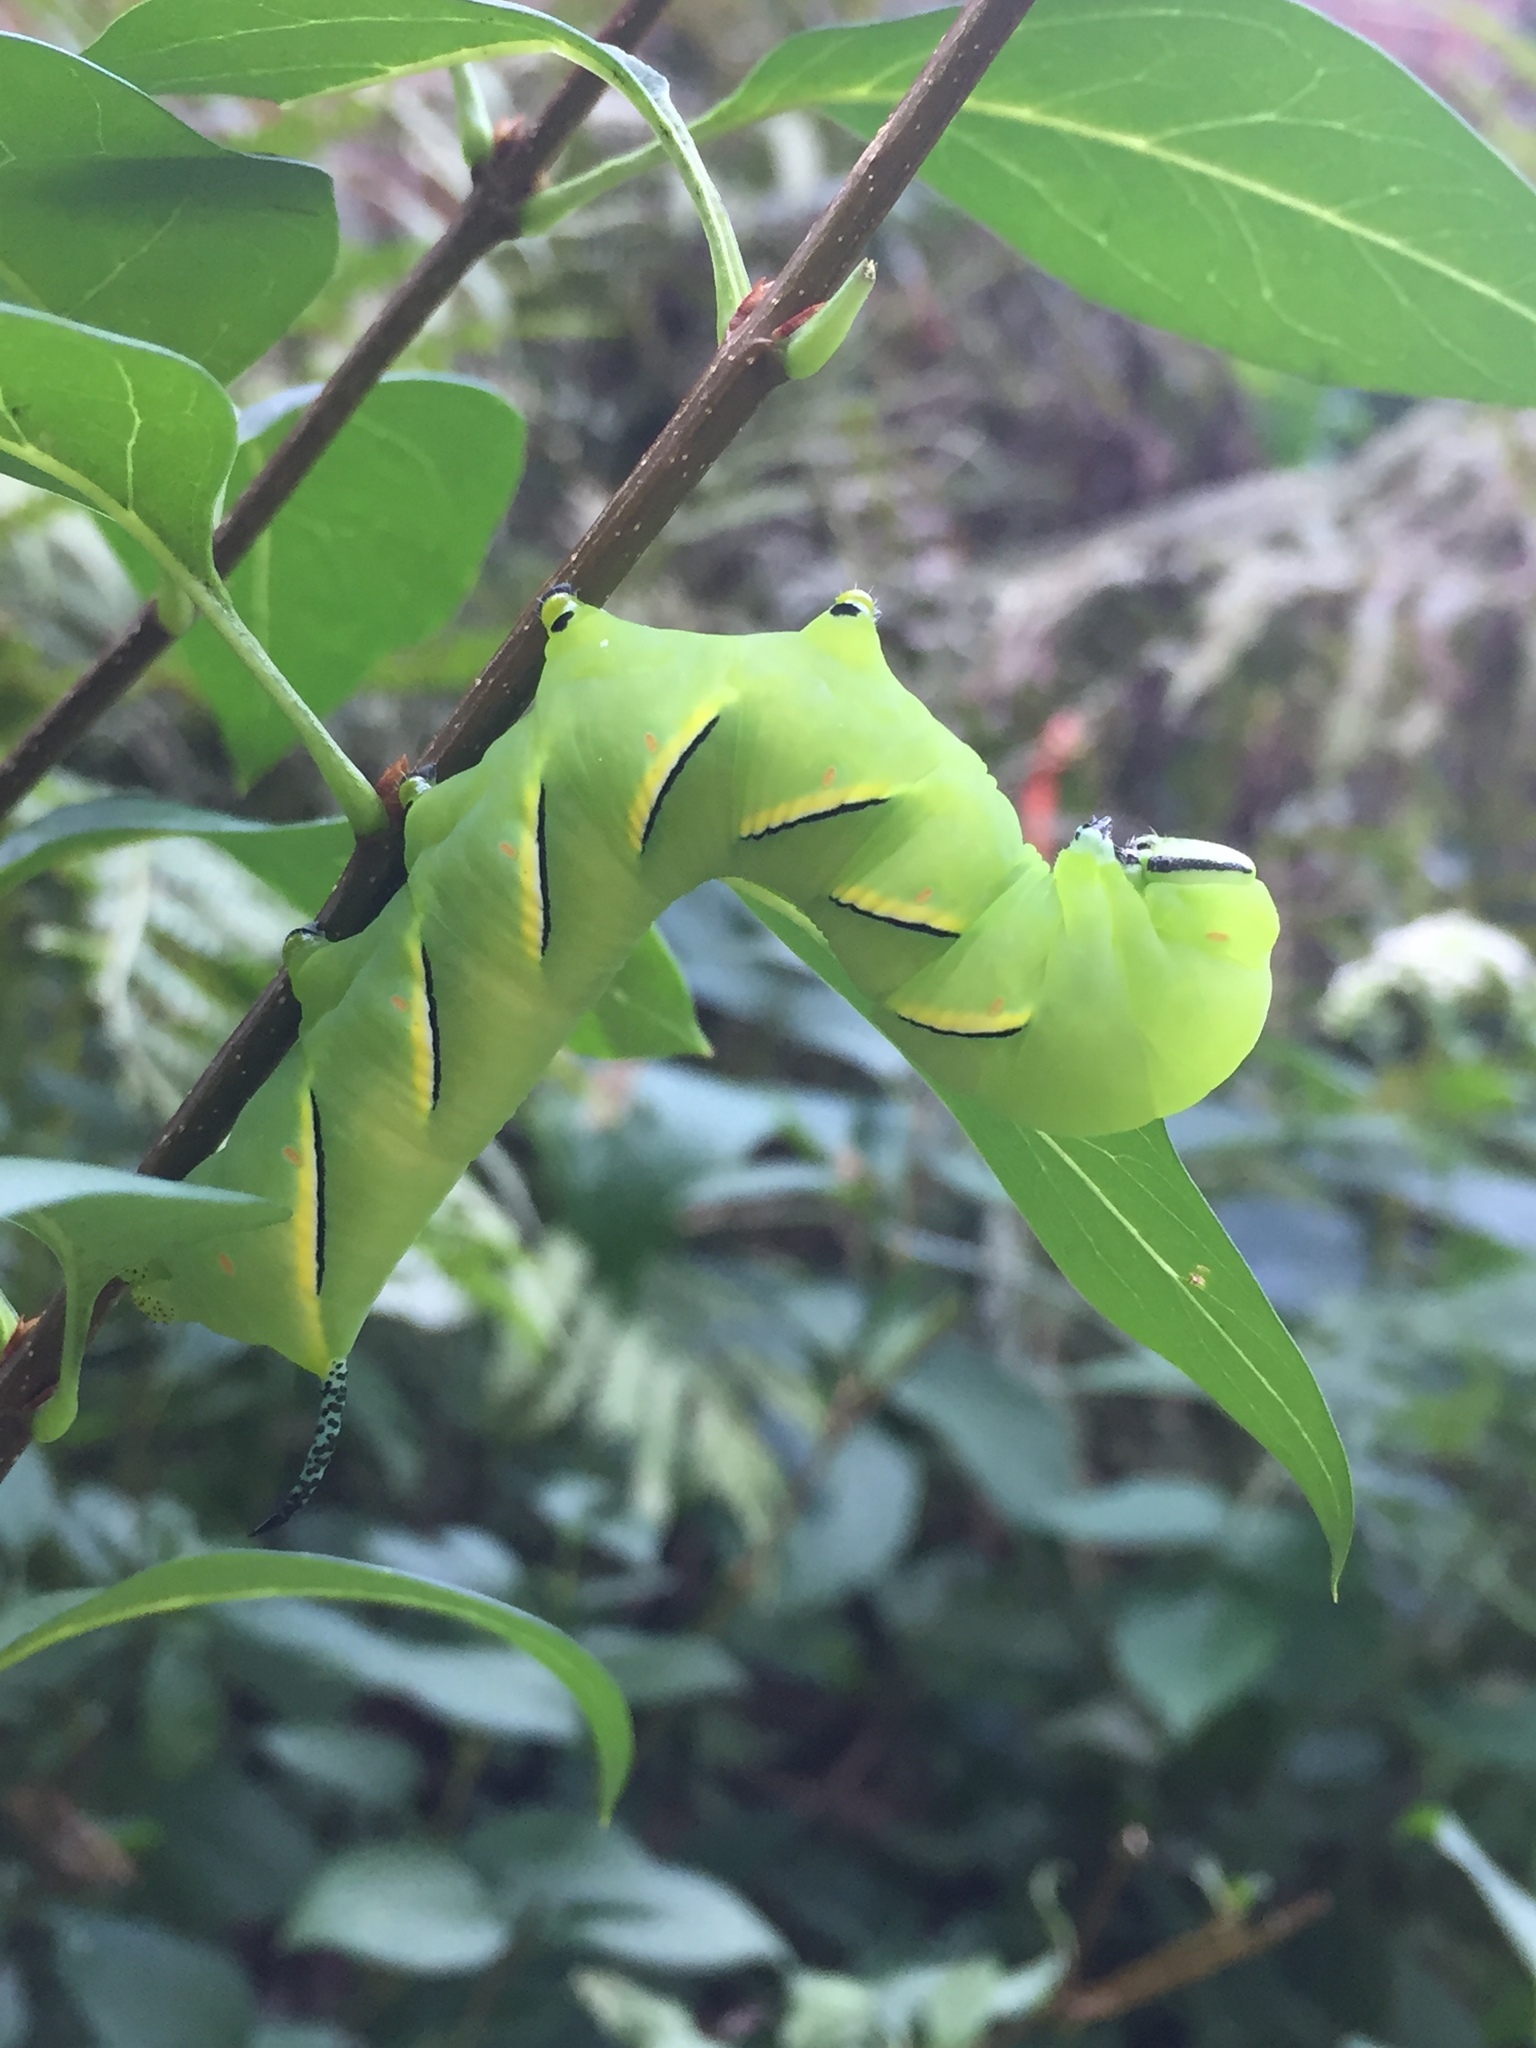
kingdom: Animalia
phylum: Arthropoda
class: Insecta
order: Lepidoptera
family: Sphingidae
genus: Sphinx
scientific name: Sphinx kalmiae
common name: Laurel sphinx
